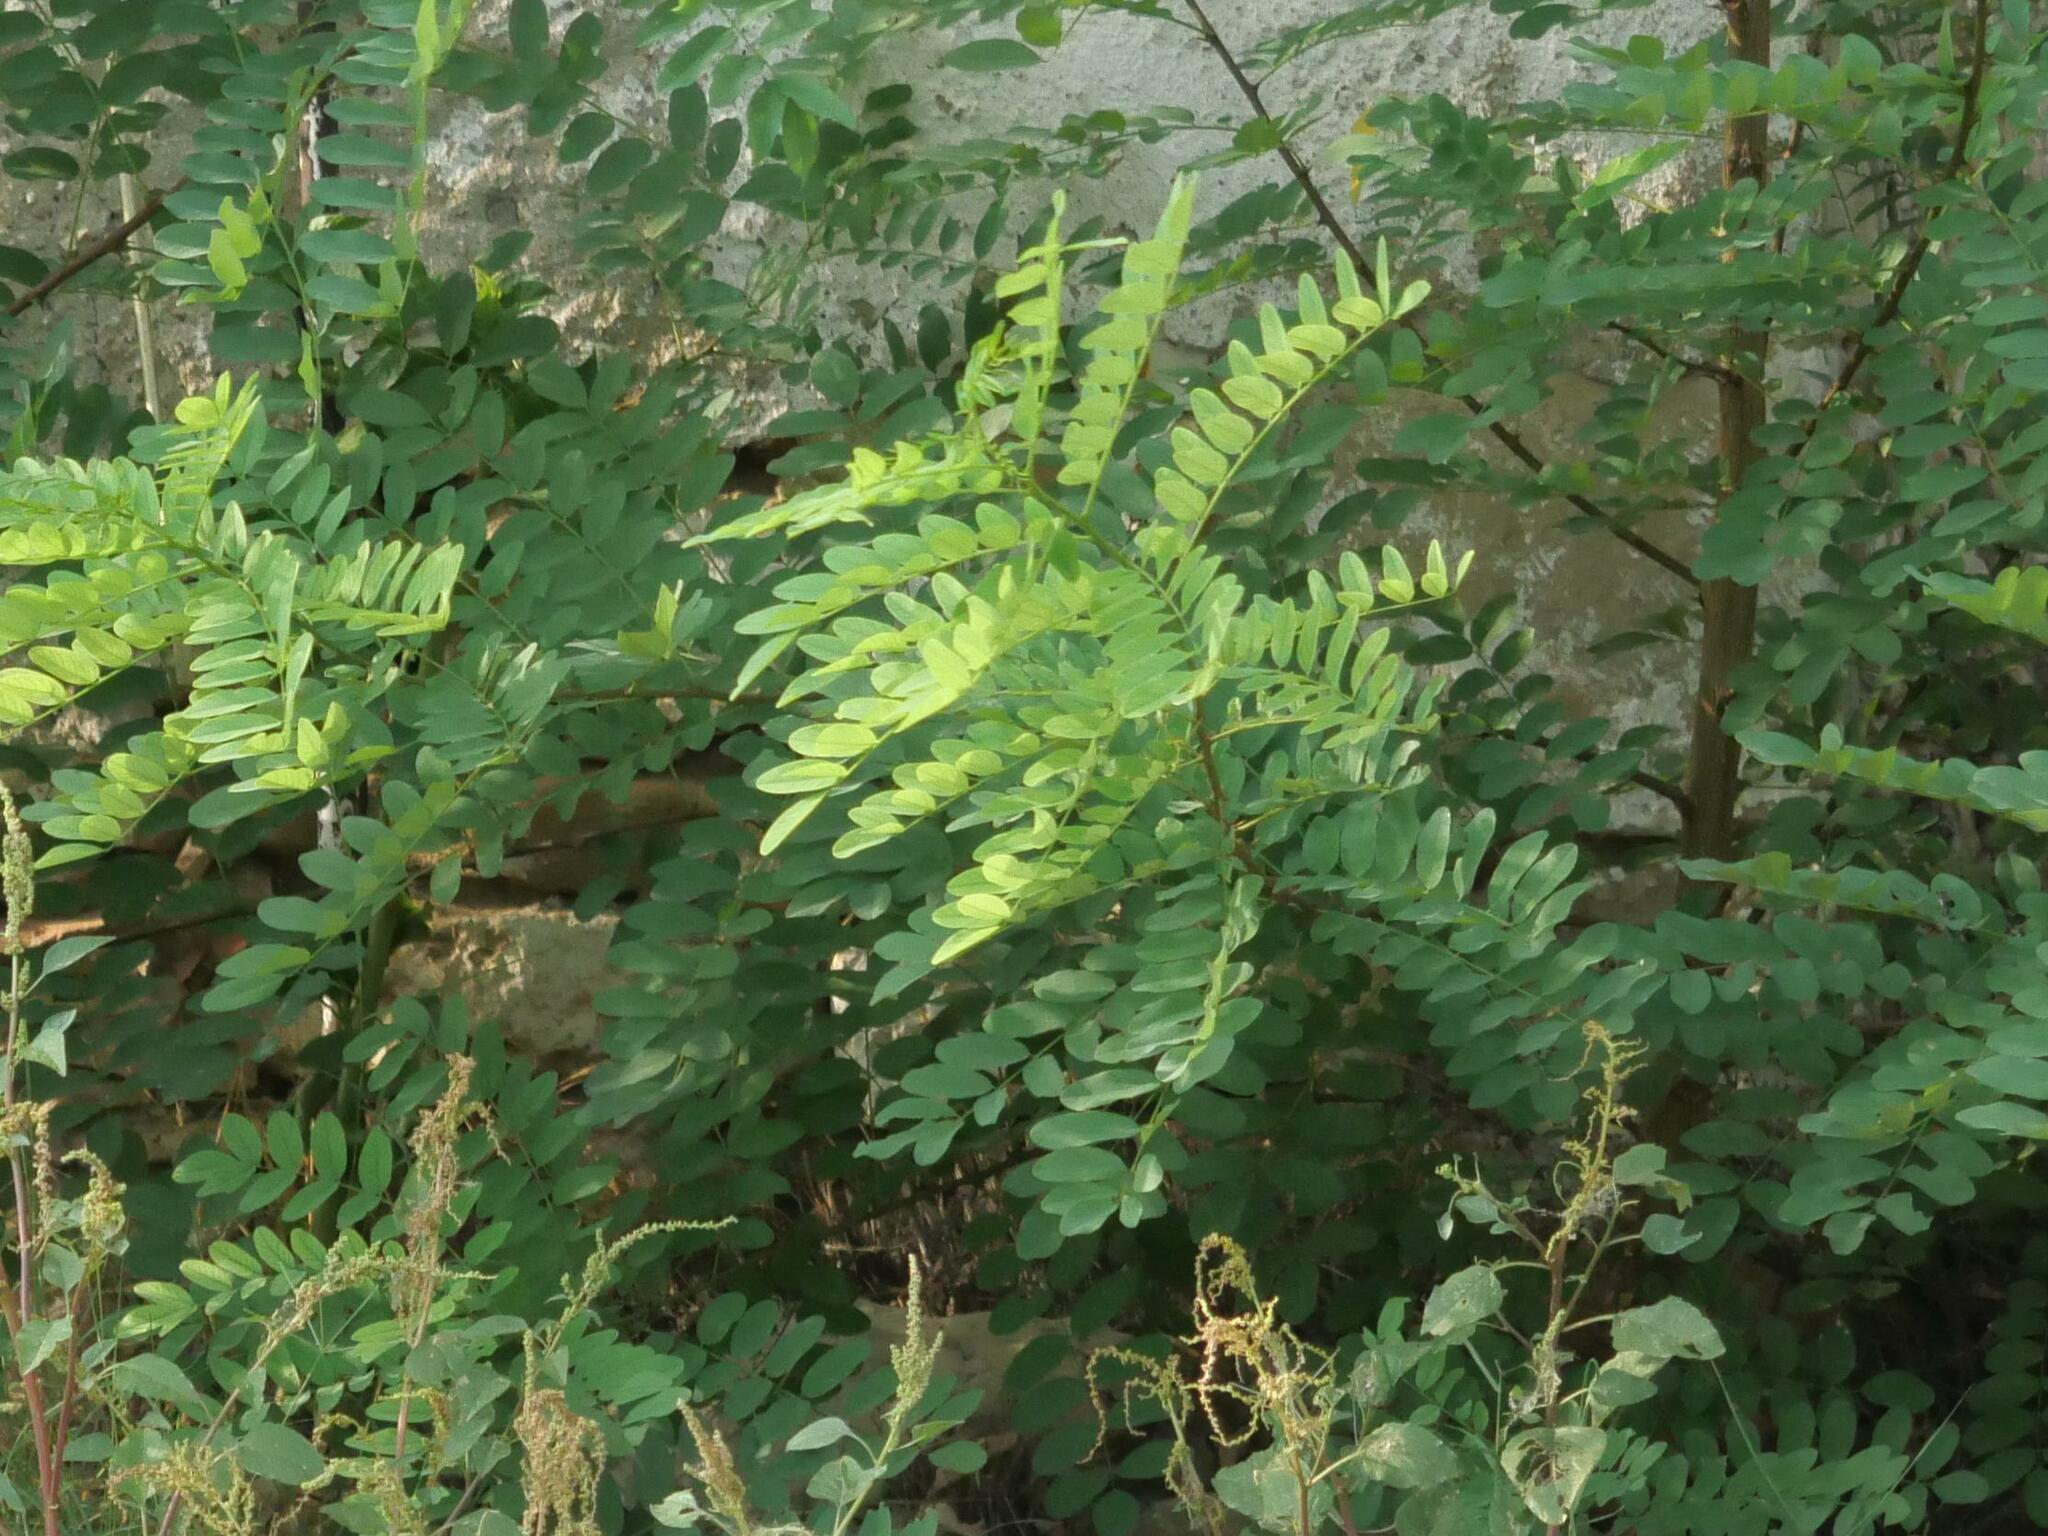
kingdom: Plantae
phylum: Tracheophyta
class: Magnoliopsida
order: Fabales
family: Fabaceae
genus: Robinia
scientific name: Robinia pseudoacacia
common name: Black locust
